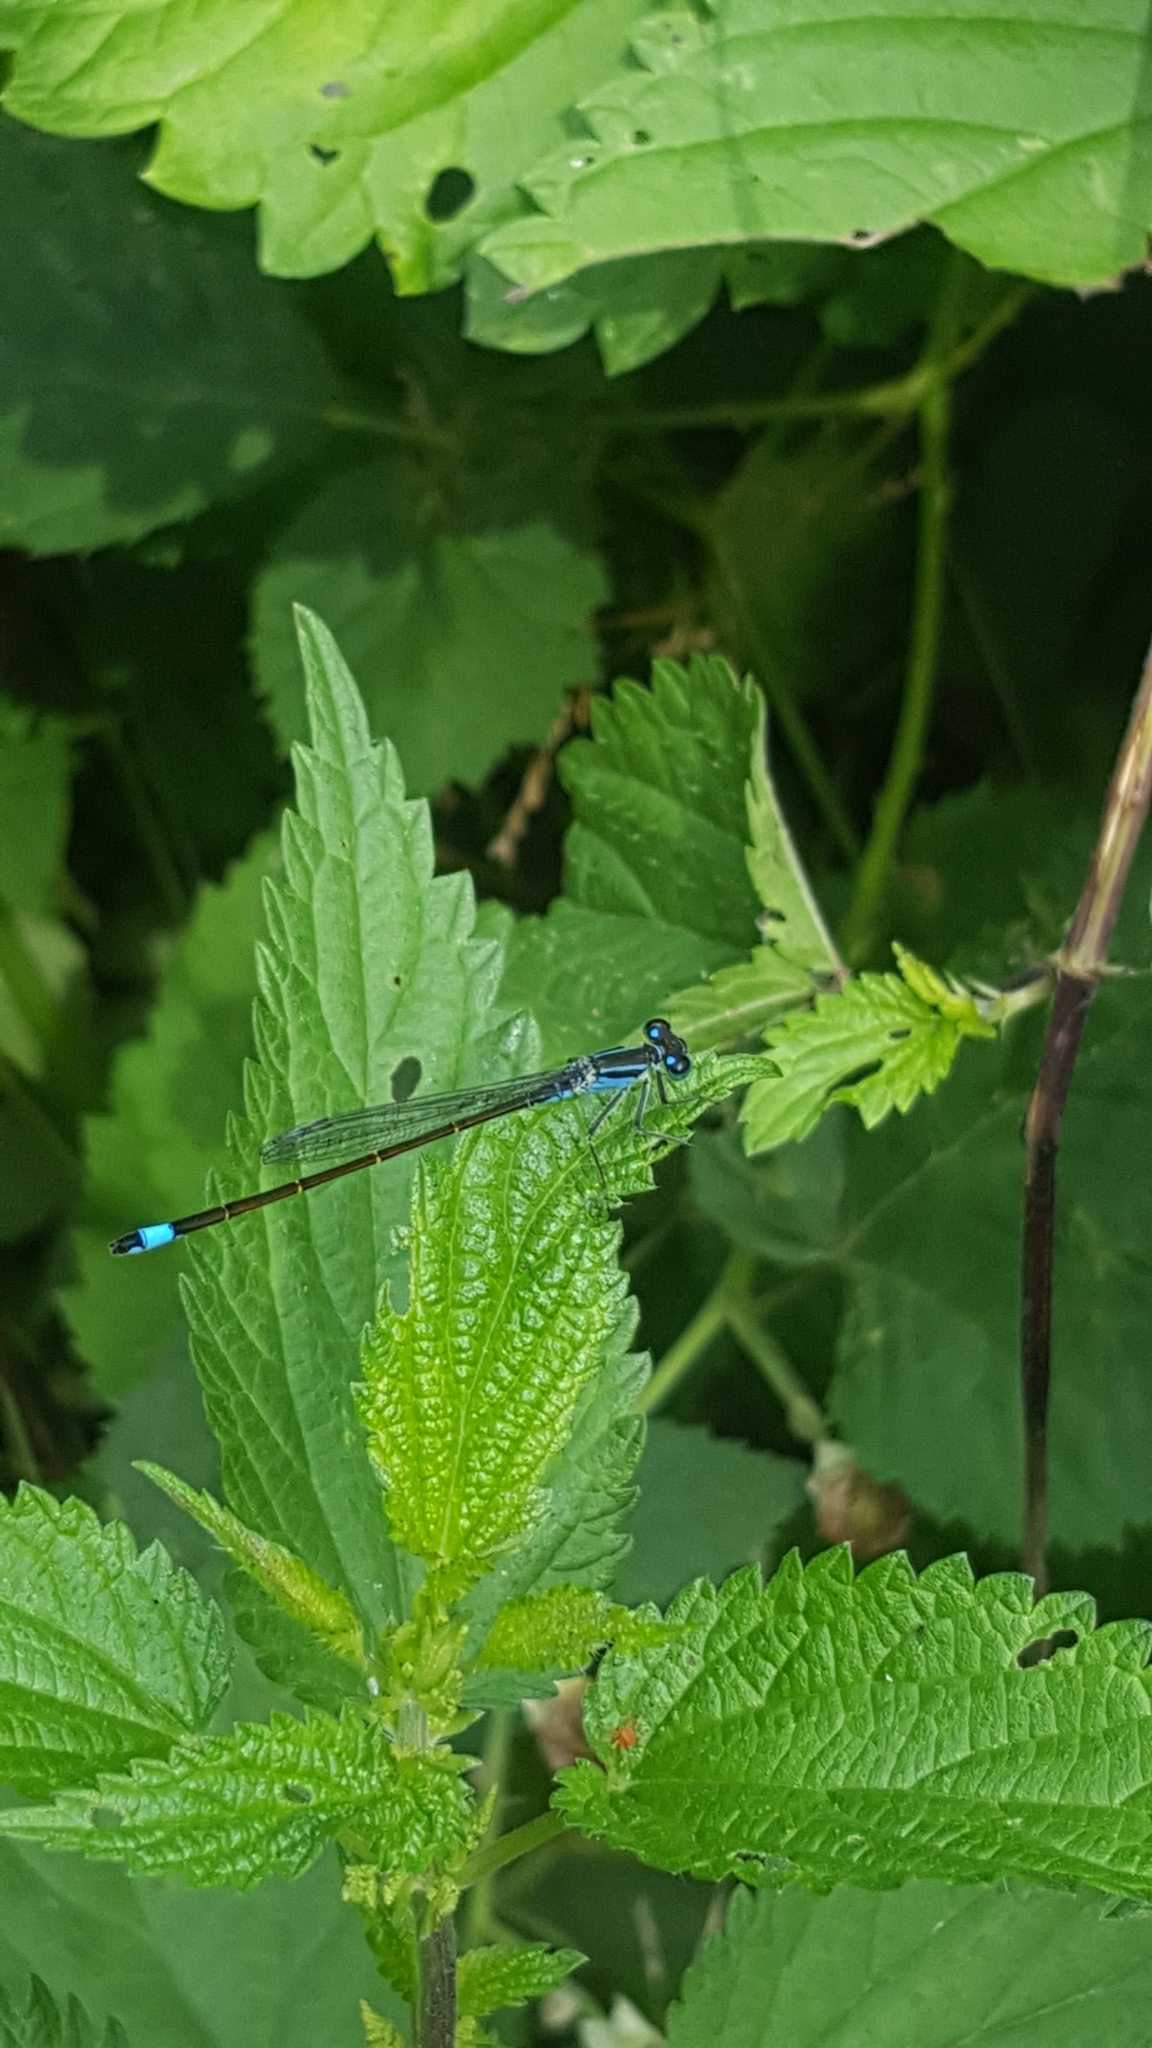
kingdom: Animalia
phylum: Arthropoda
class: Insecta
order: Odonata
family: Coenagrionidae
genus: Ischnura
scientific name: Ischnura elegans
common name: Blue-tailed damselfly
